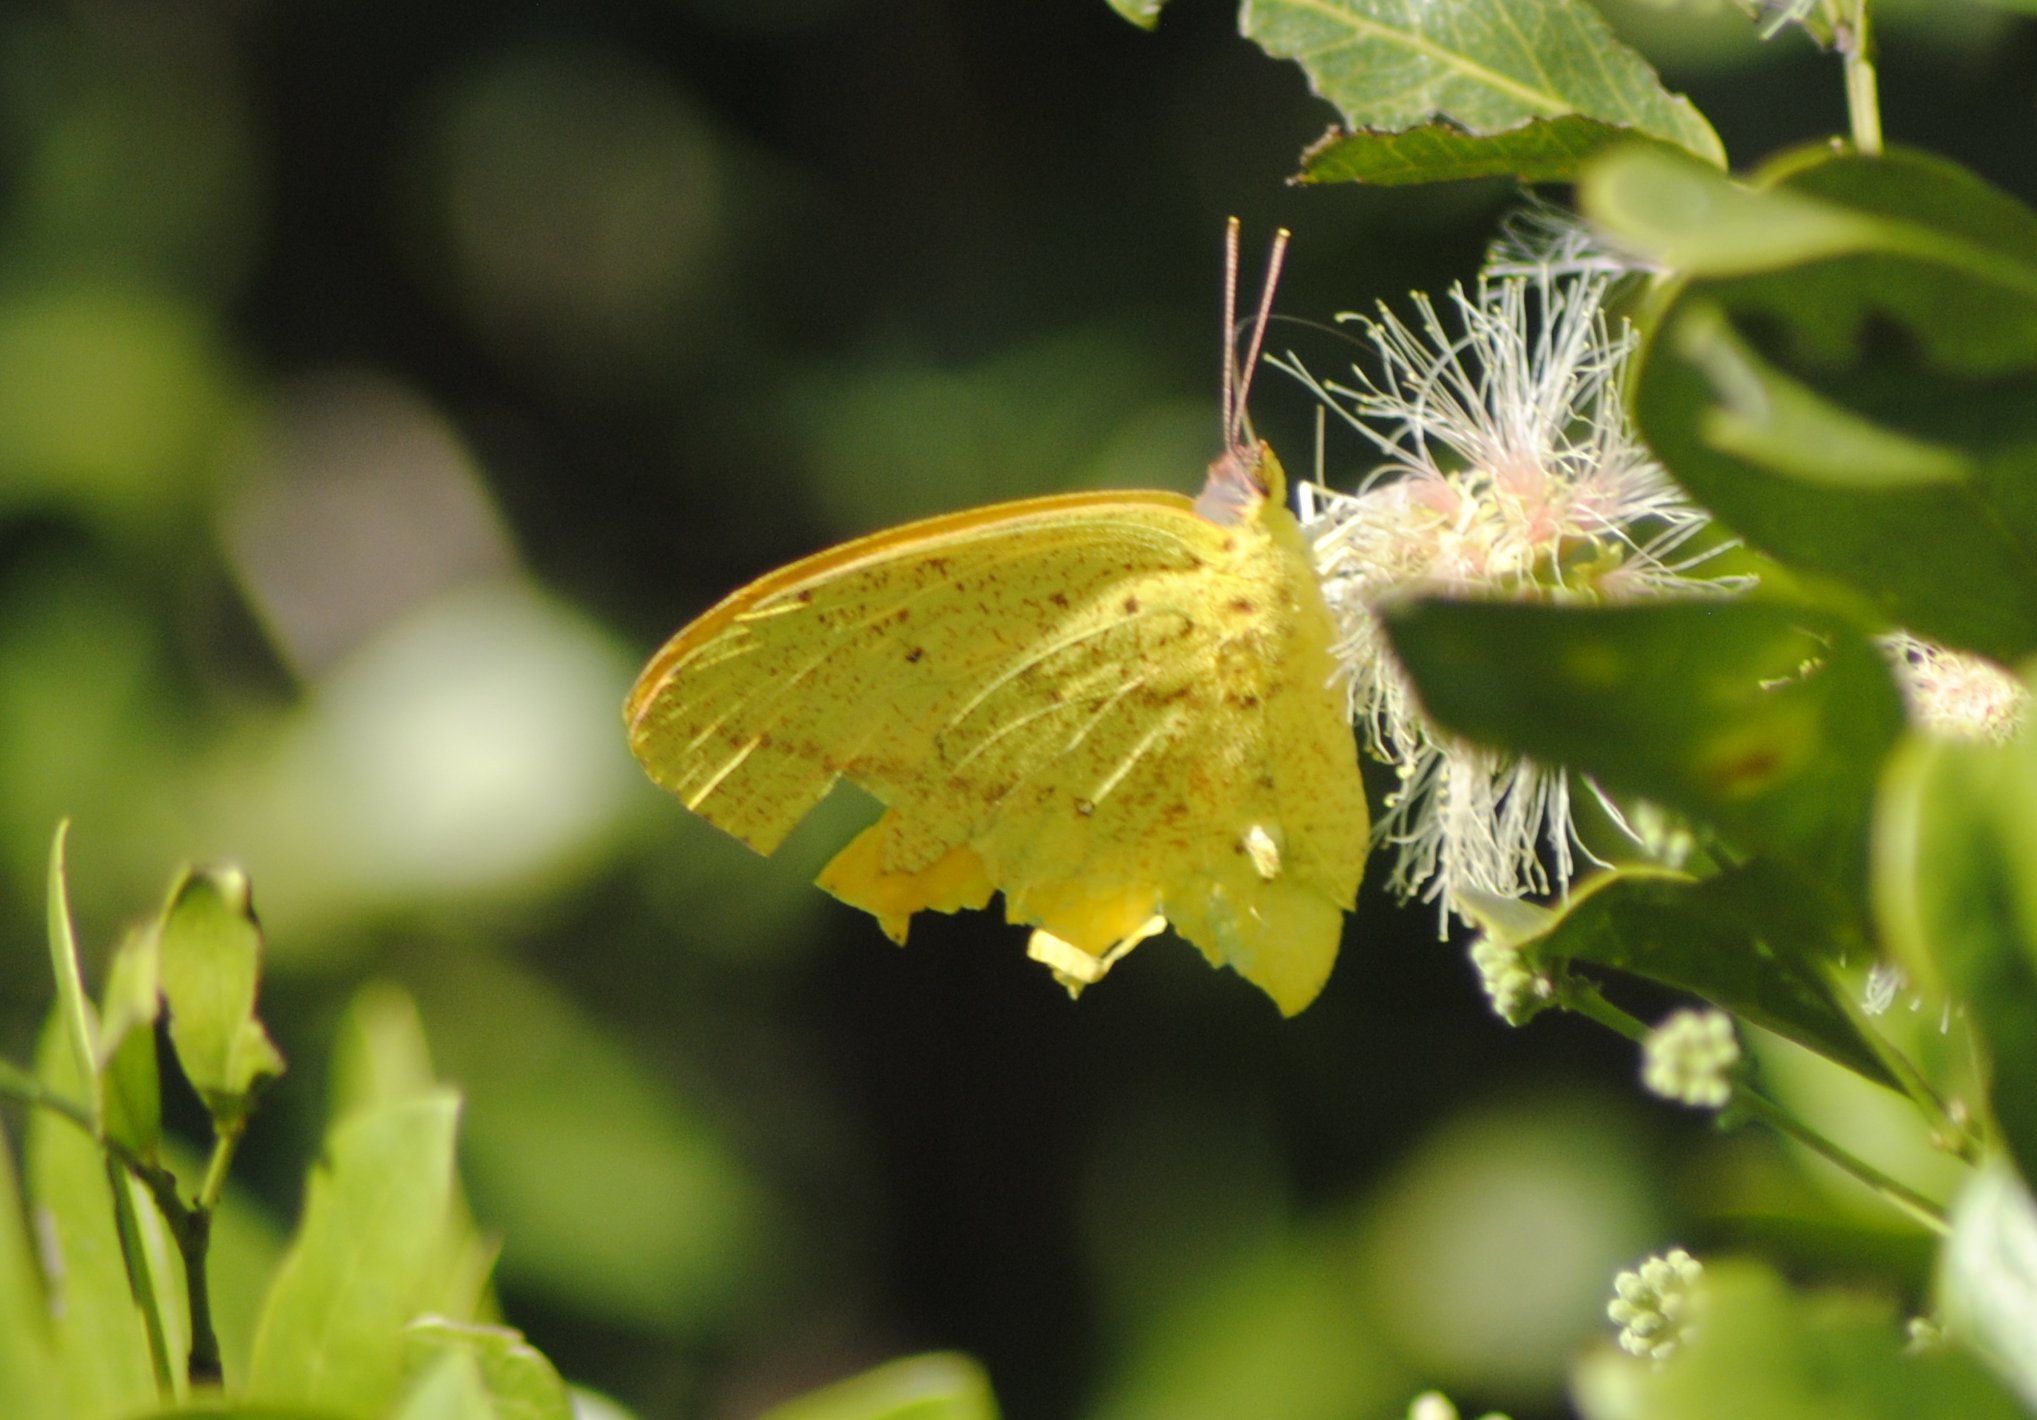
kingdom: Animalia
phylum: Arthropoda
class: Insecta
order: Lepidoptera
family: Pieridae
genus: Phoebis
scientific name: Phoebis agarithe
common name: Large orange sulphur
